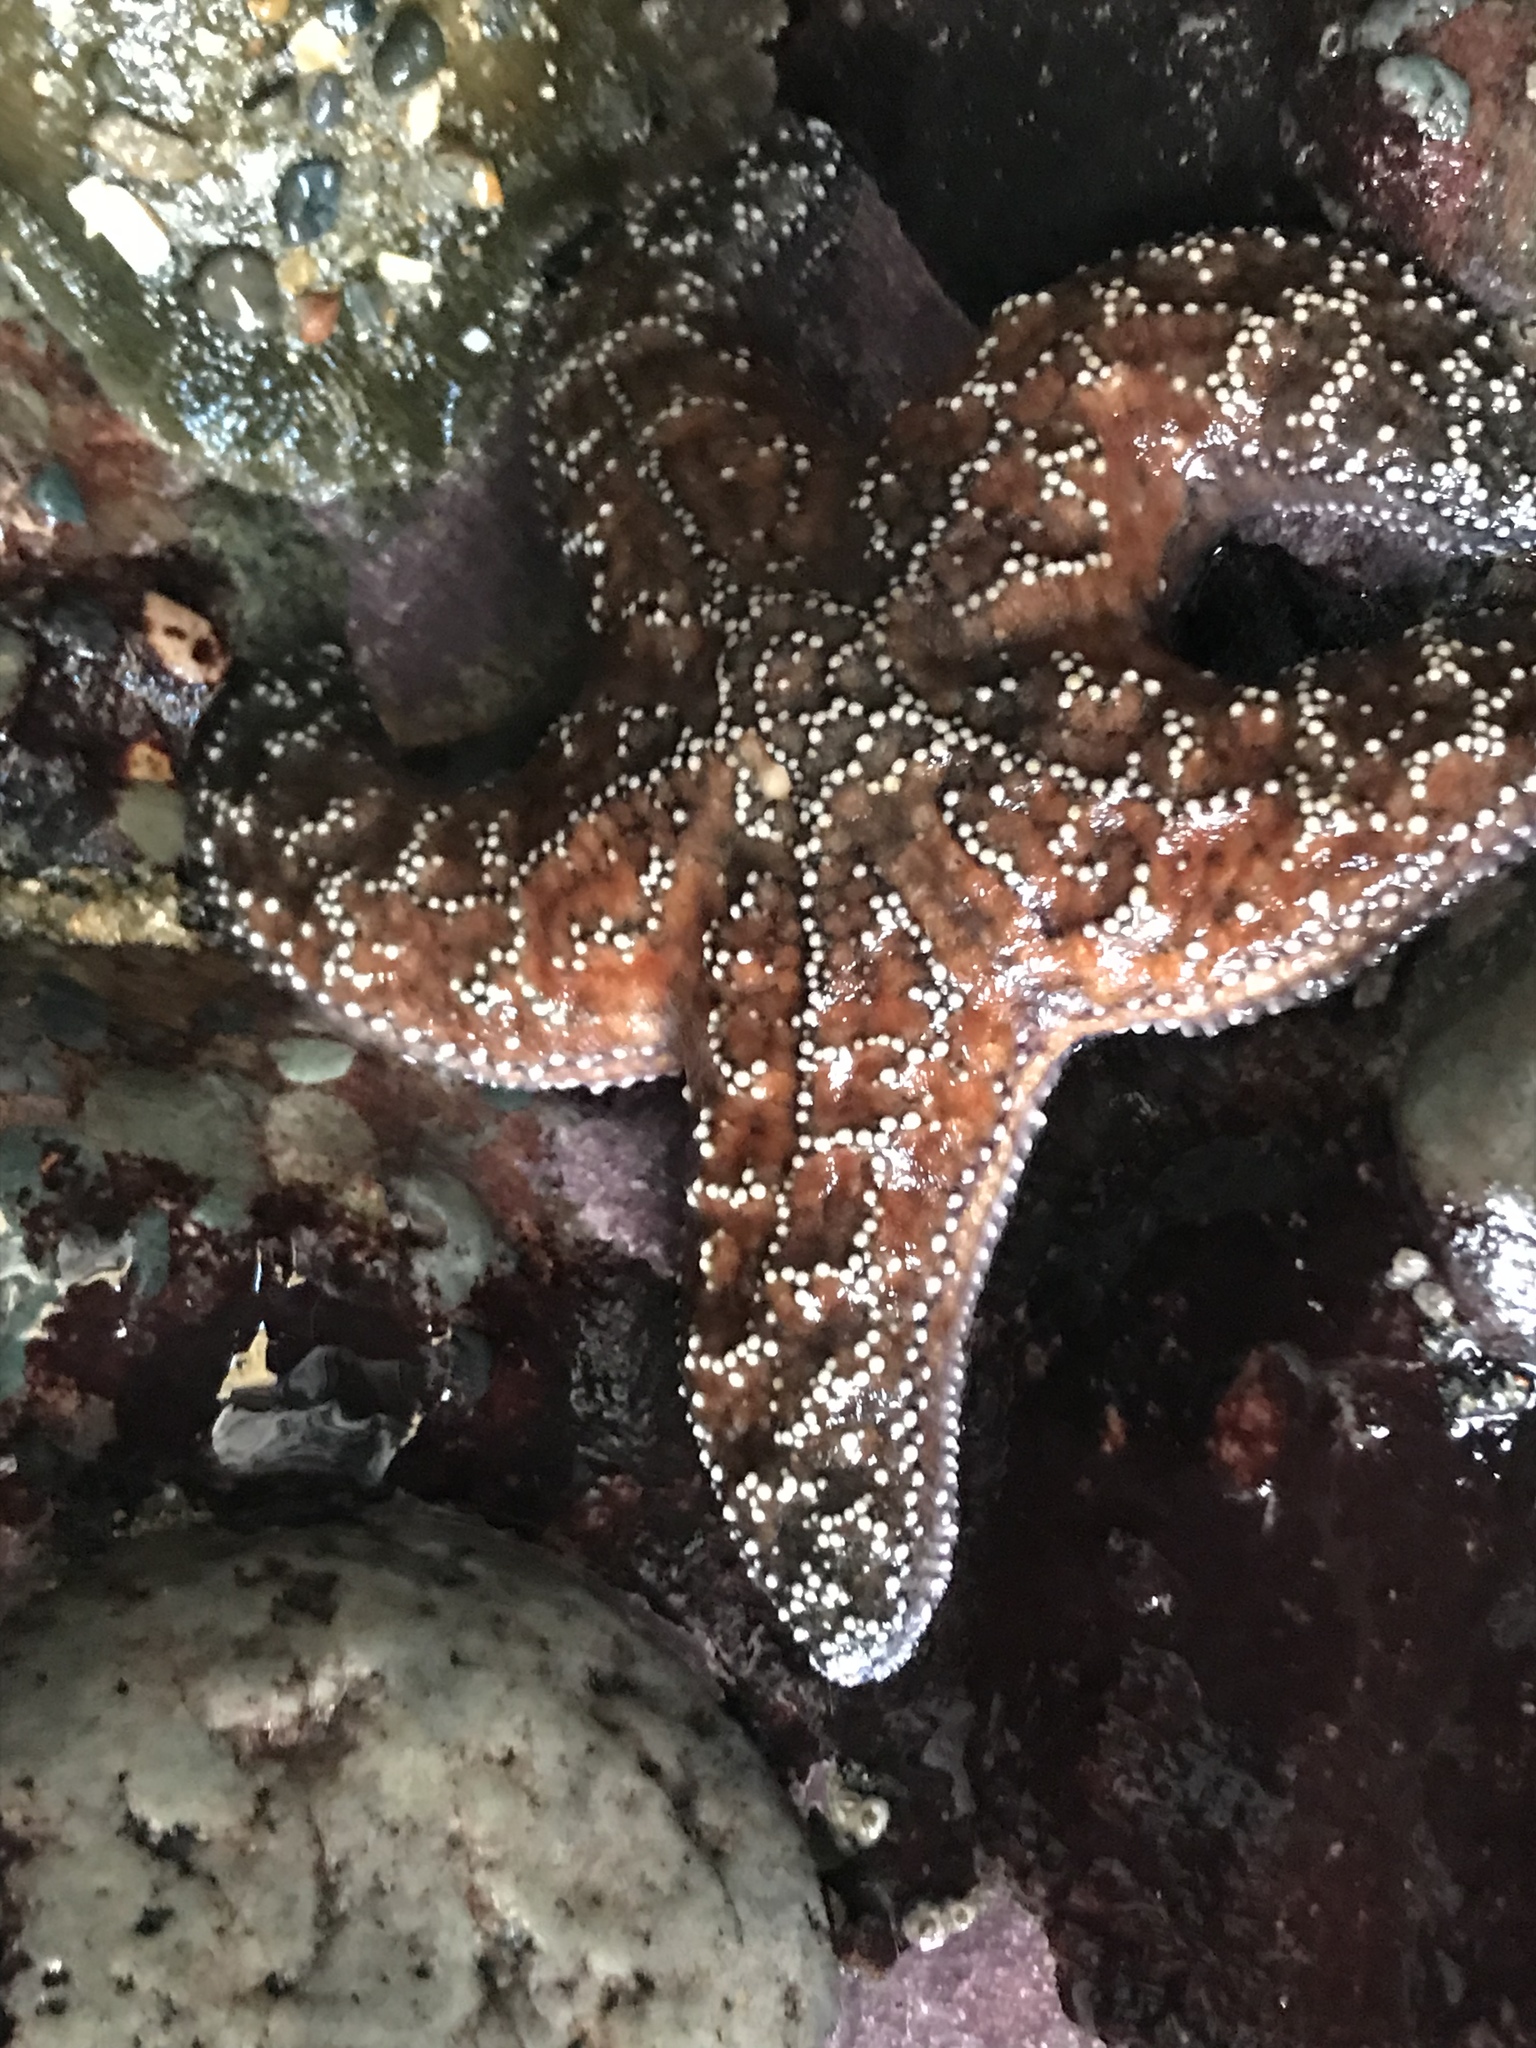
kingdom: Animalia
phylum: Echinodermata
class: Asteroidea
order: Forcipulatida
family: Asteriidae
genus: Pisaster
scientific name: Pisaster ochraceus
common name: Ochre stars
